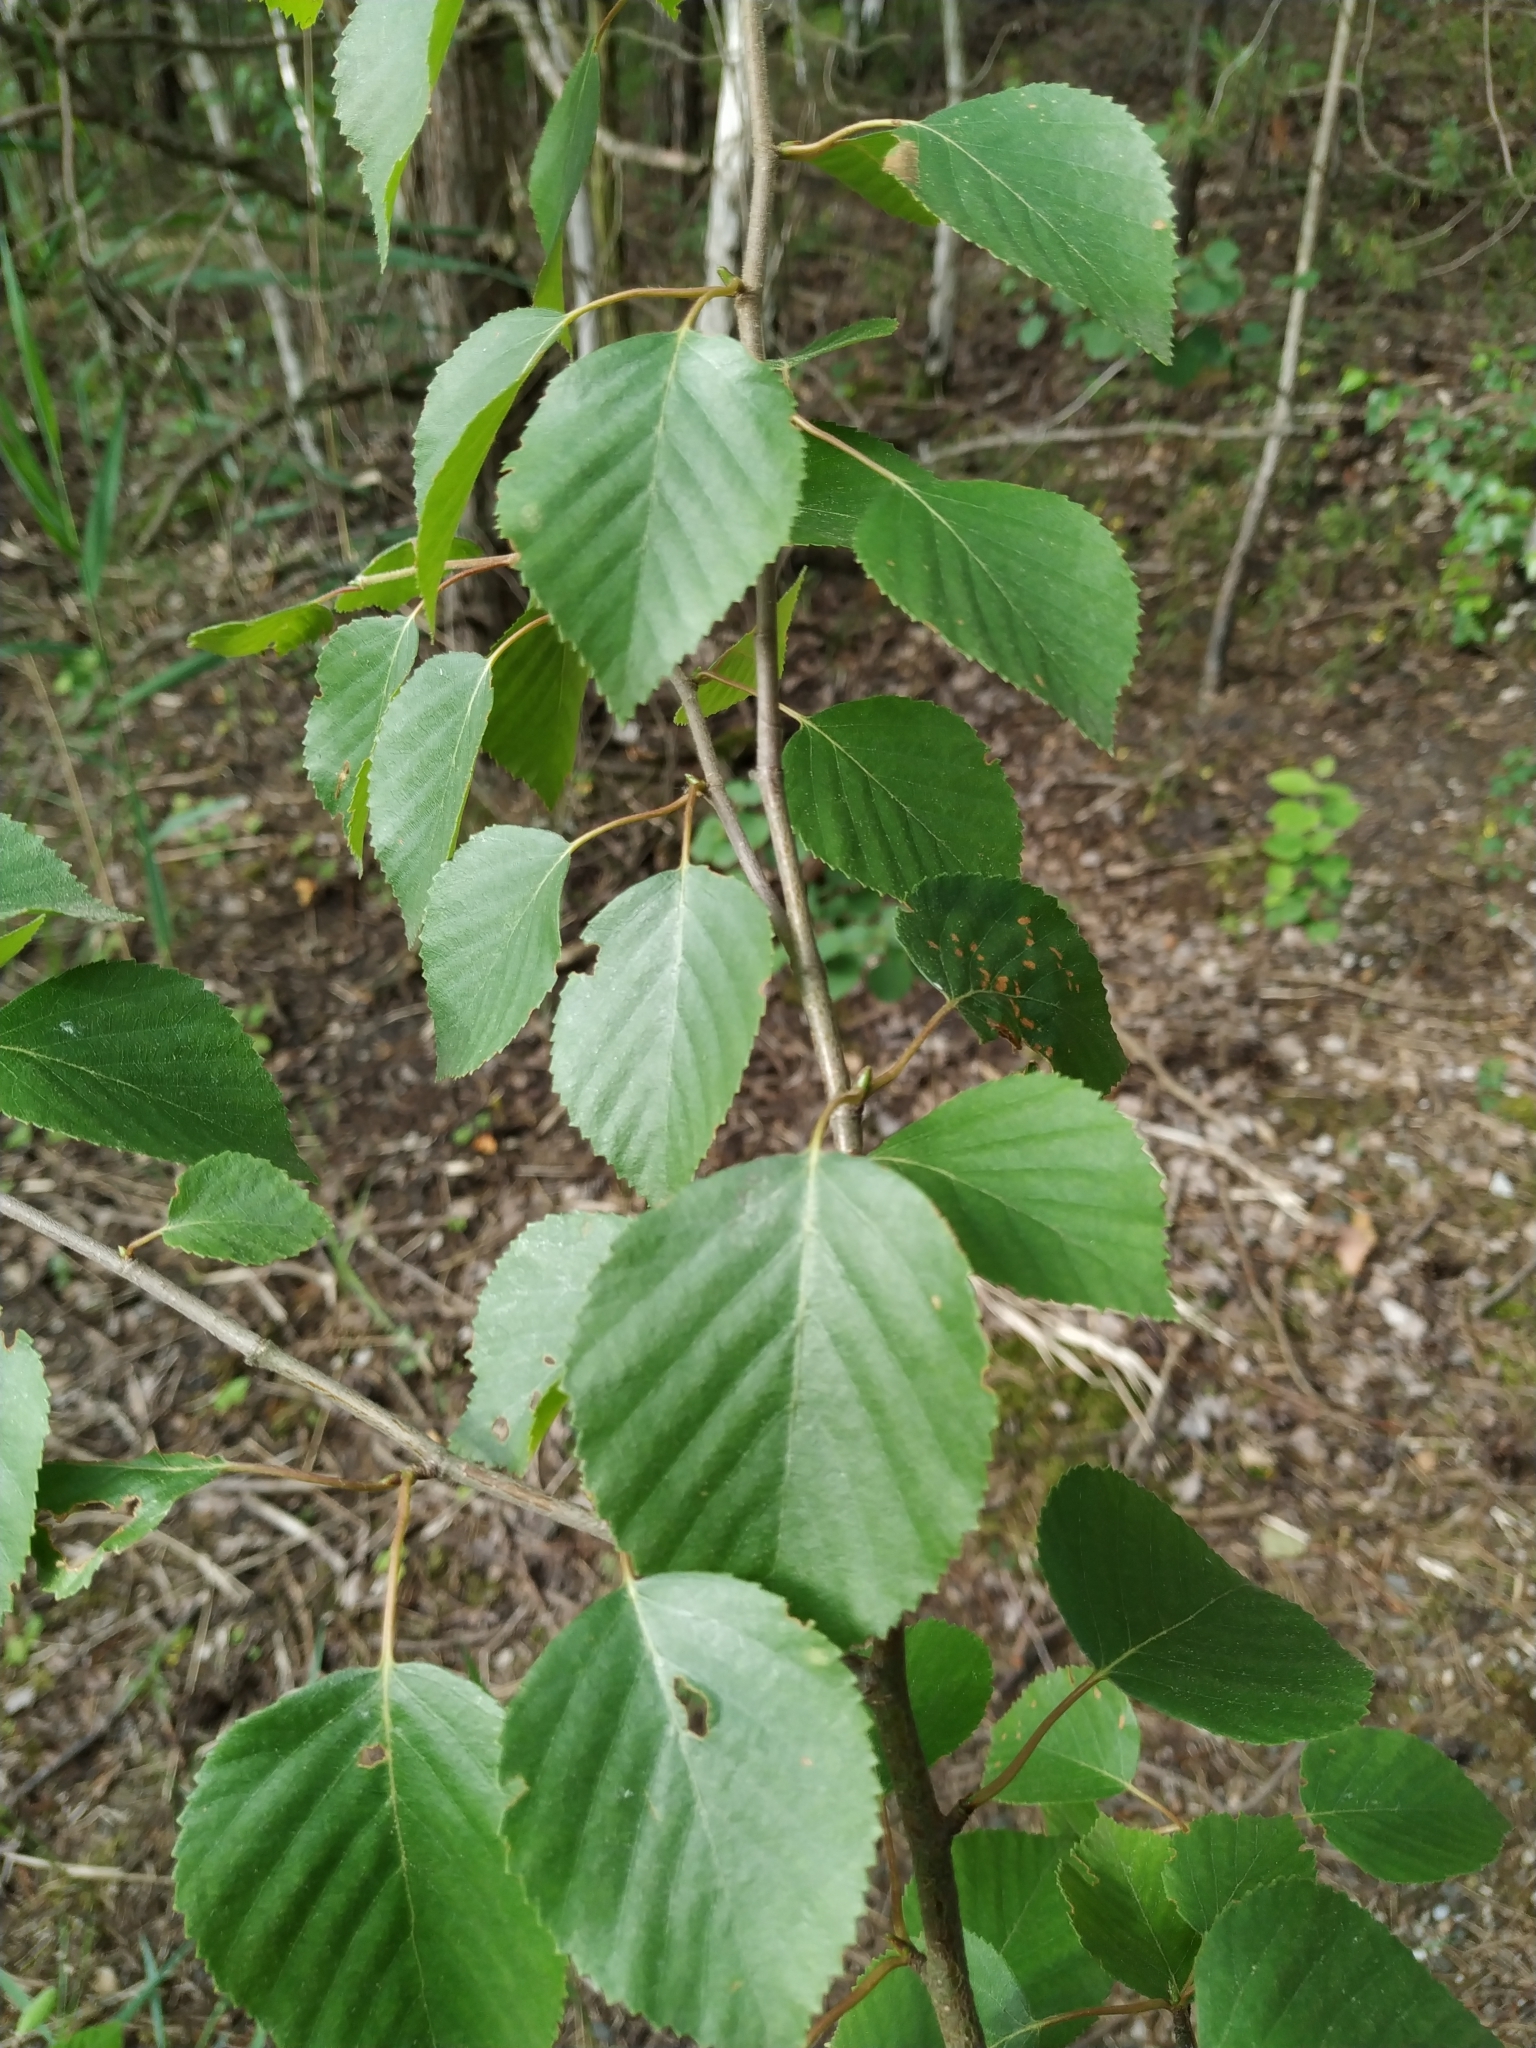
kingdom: Plantae
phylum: Tracheophyta
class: Magnoliopsida
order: Fagales
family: Betulaceae
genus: Betula
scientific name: Betula pubescens
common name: Downy birch
